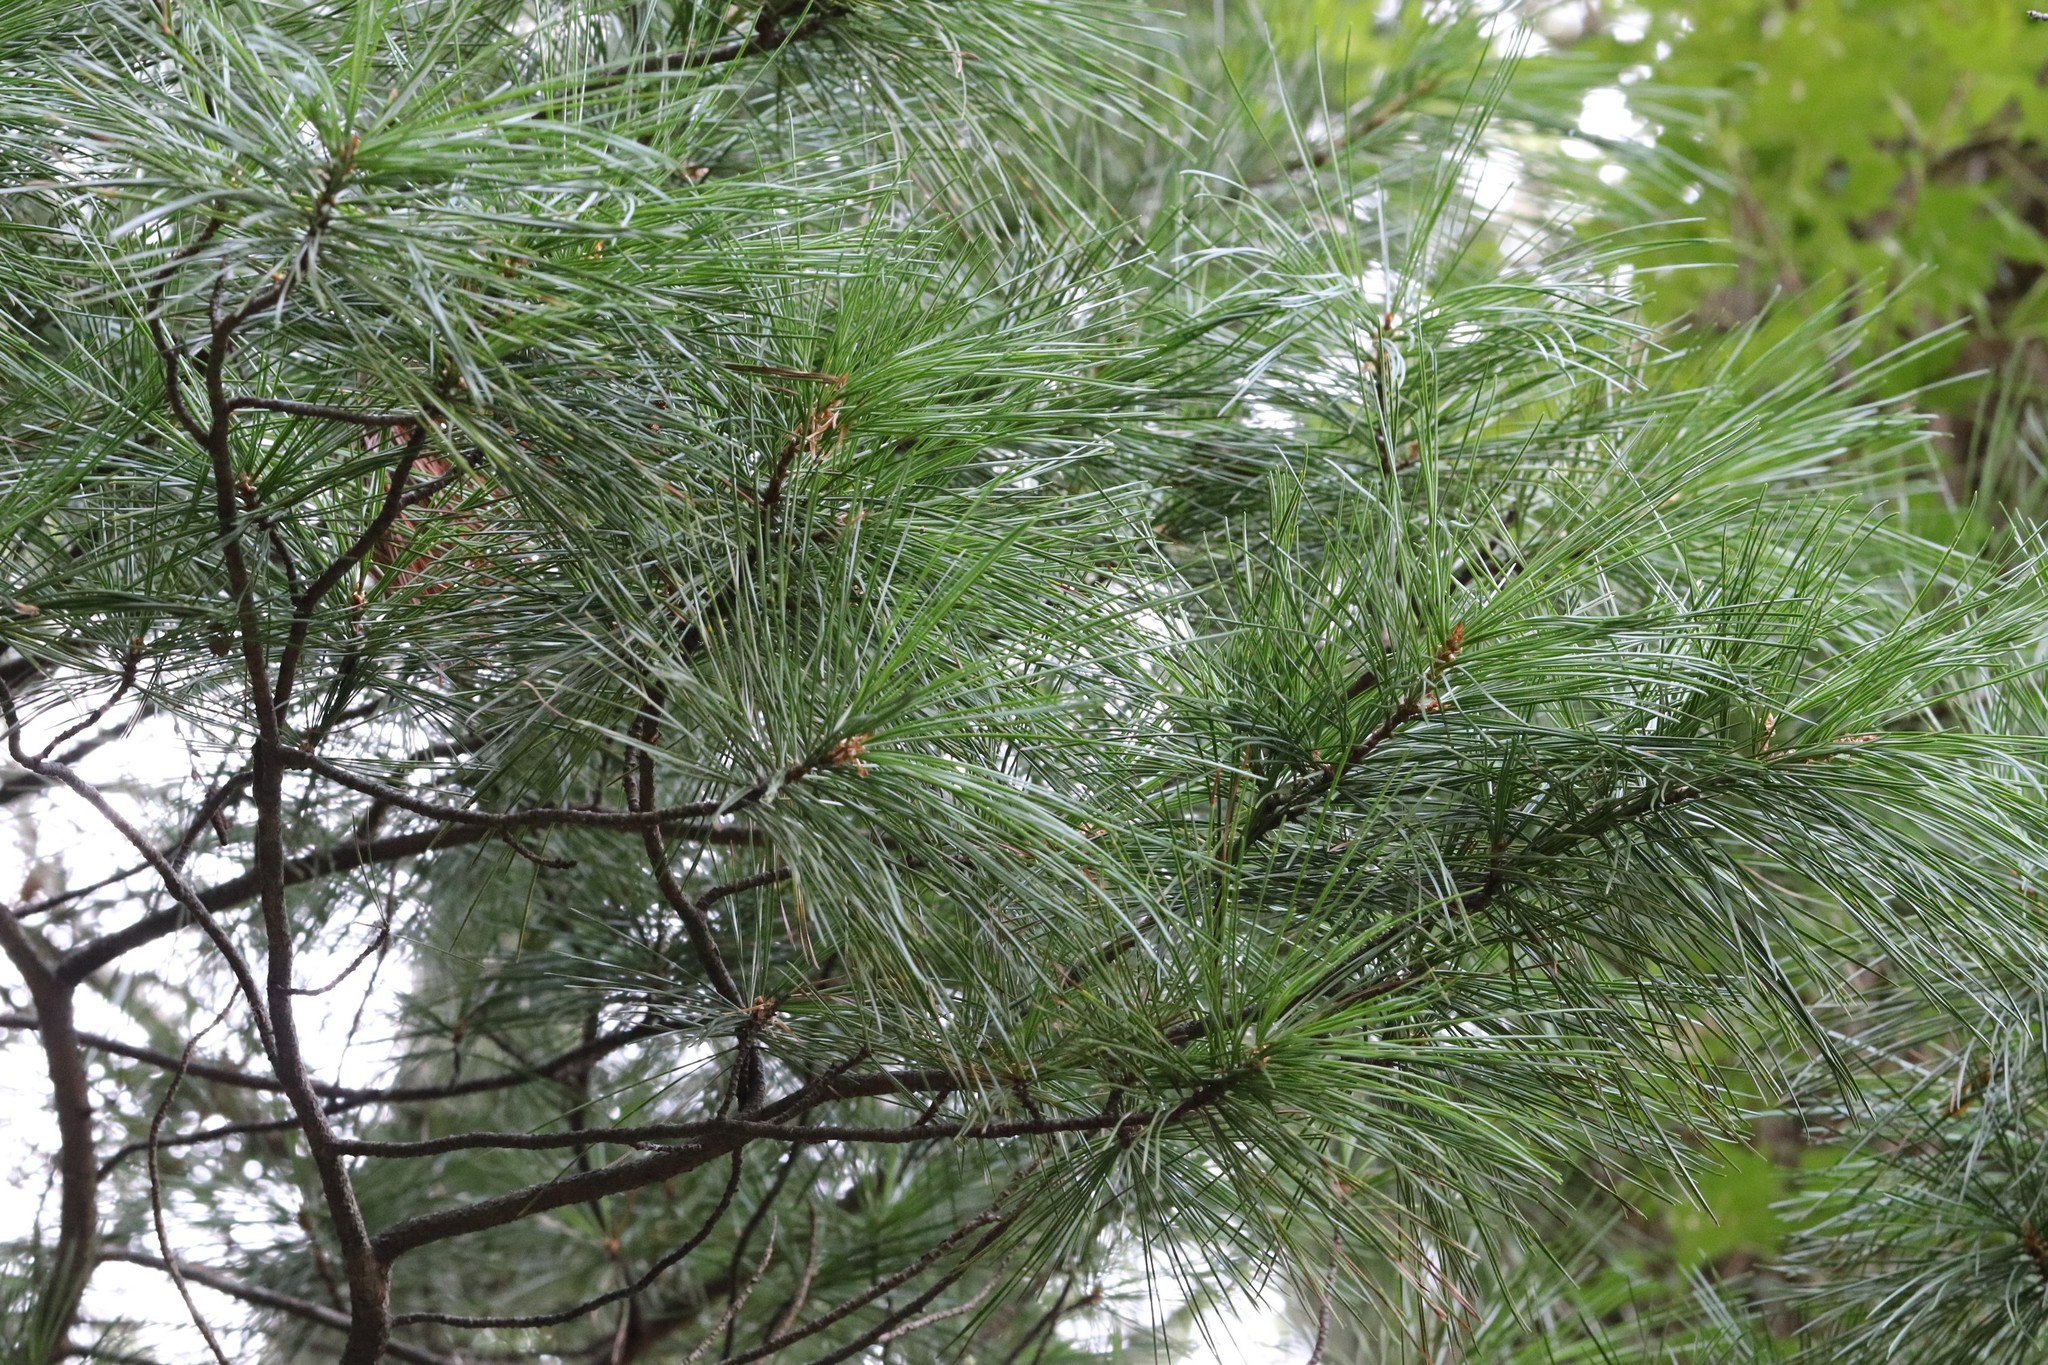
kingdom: Plantae
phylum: Tracheophyta
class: Pinopsida
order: Pinales
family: Pinaceae
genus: Pinus
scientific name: Pinus koraiensis
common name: Korean pine
